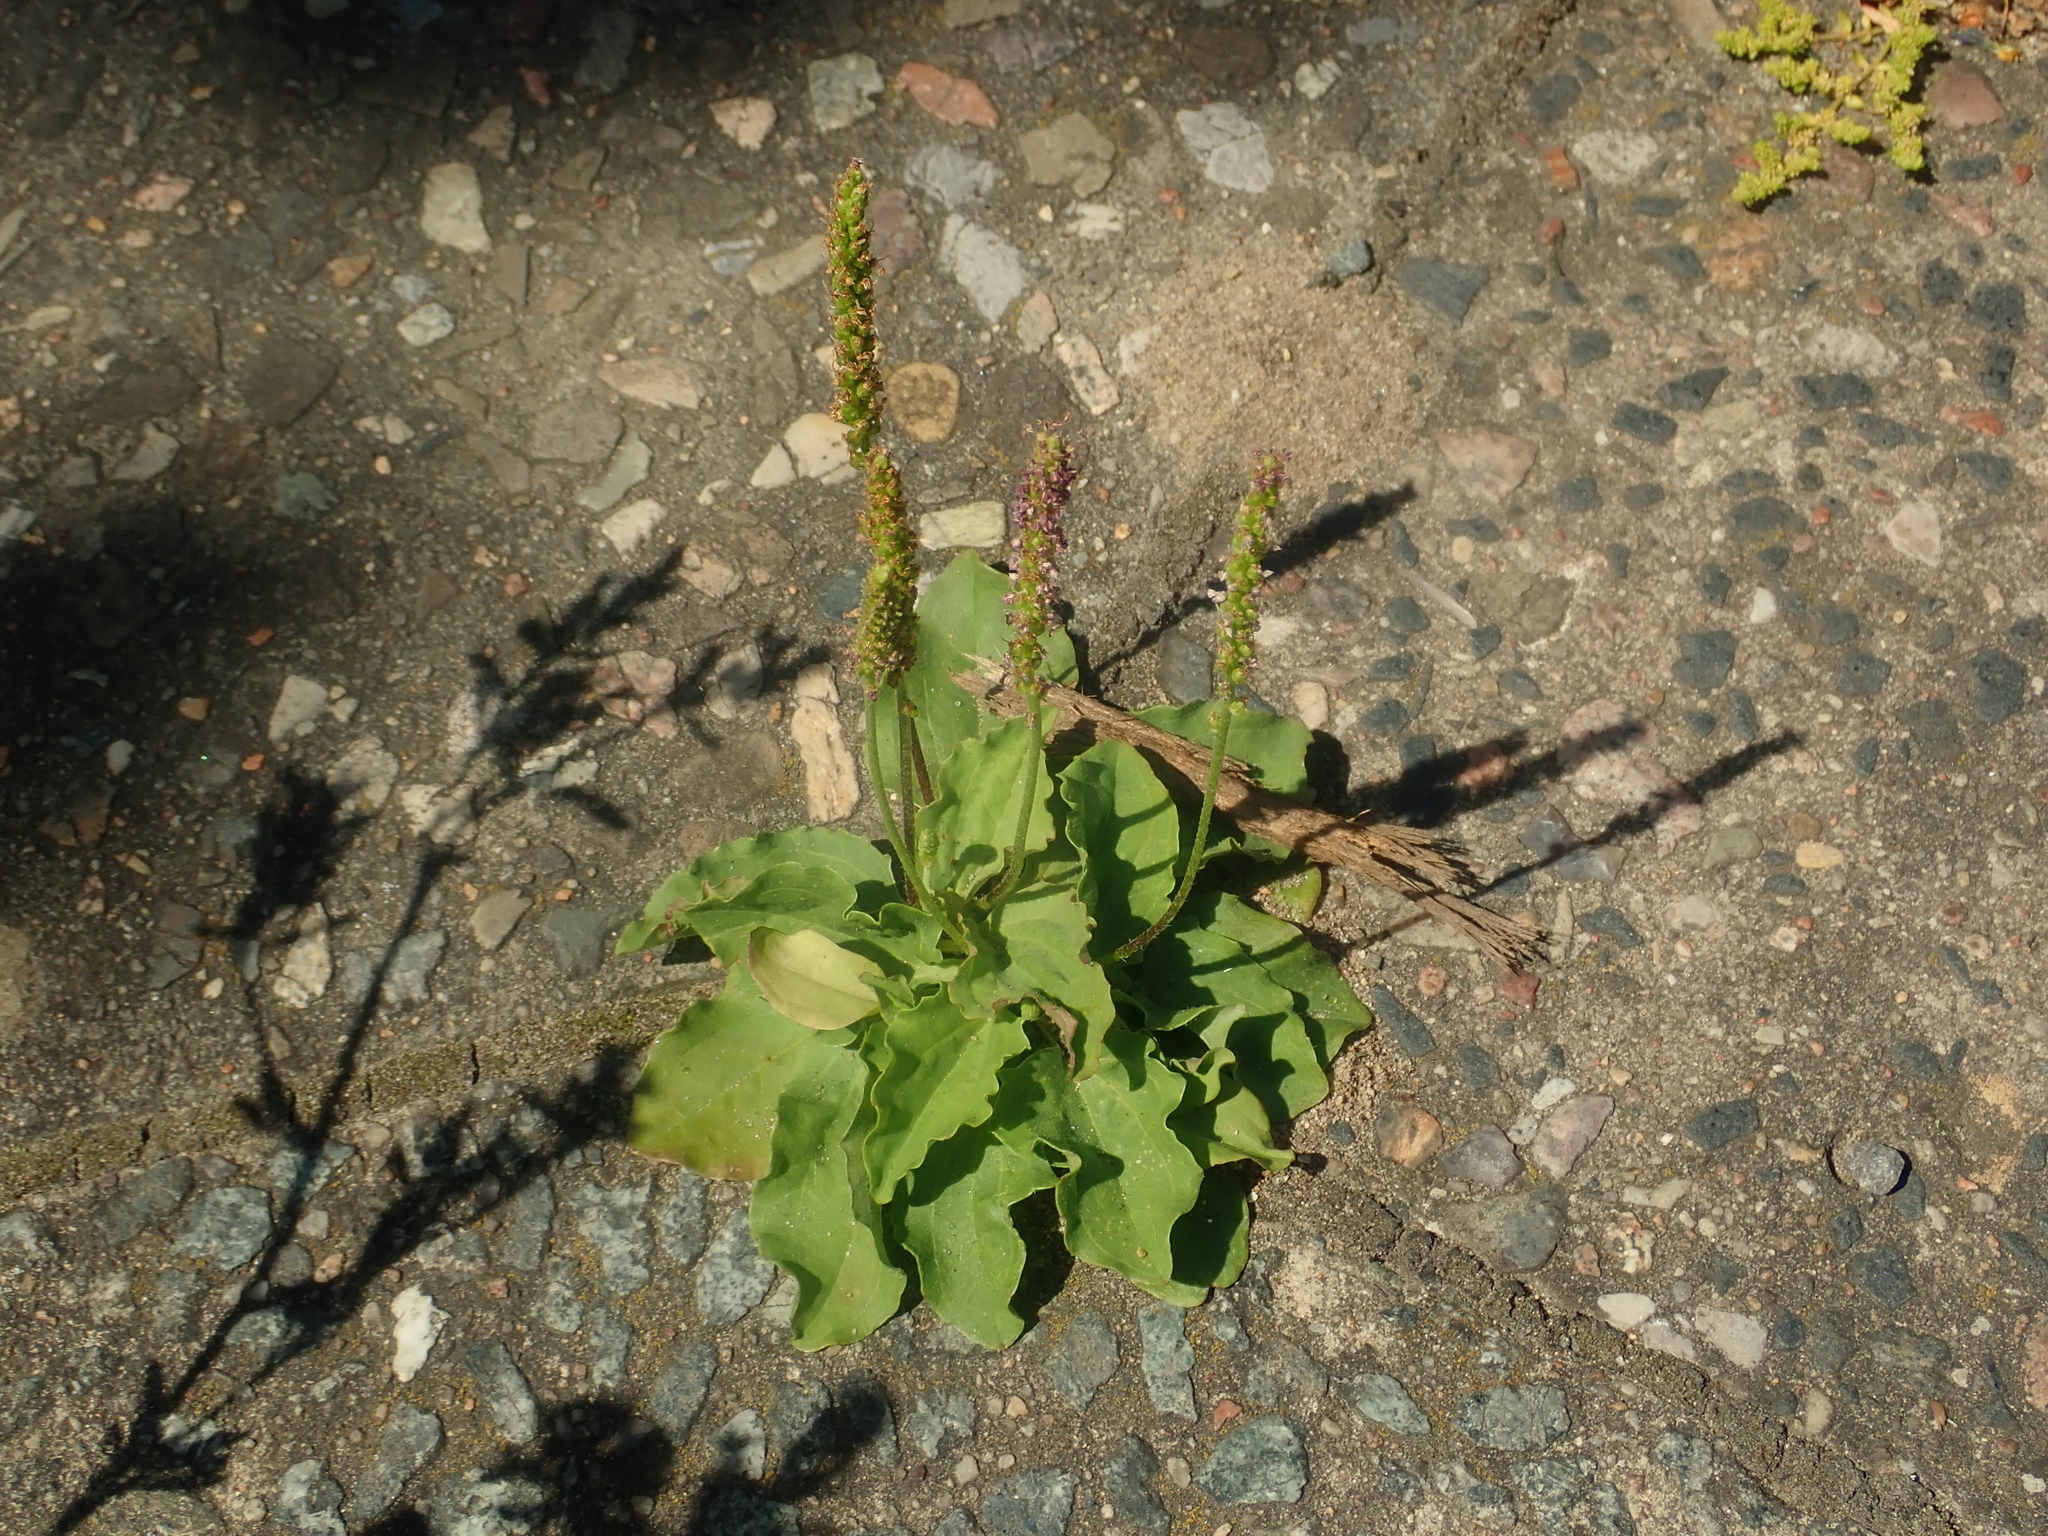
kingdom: Plantae
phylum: Tracheophyta
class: Magnoliopsida
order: Lamiales
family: Plantaginaceae
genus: Plantago
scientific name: Plantago major
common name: Common plantain
